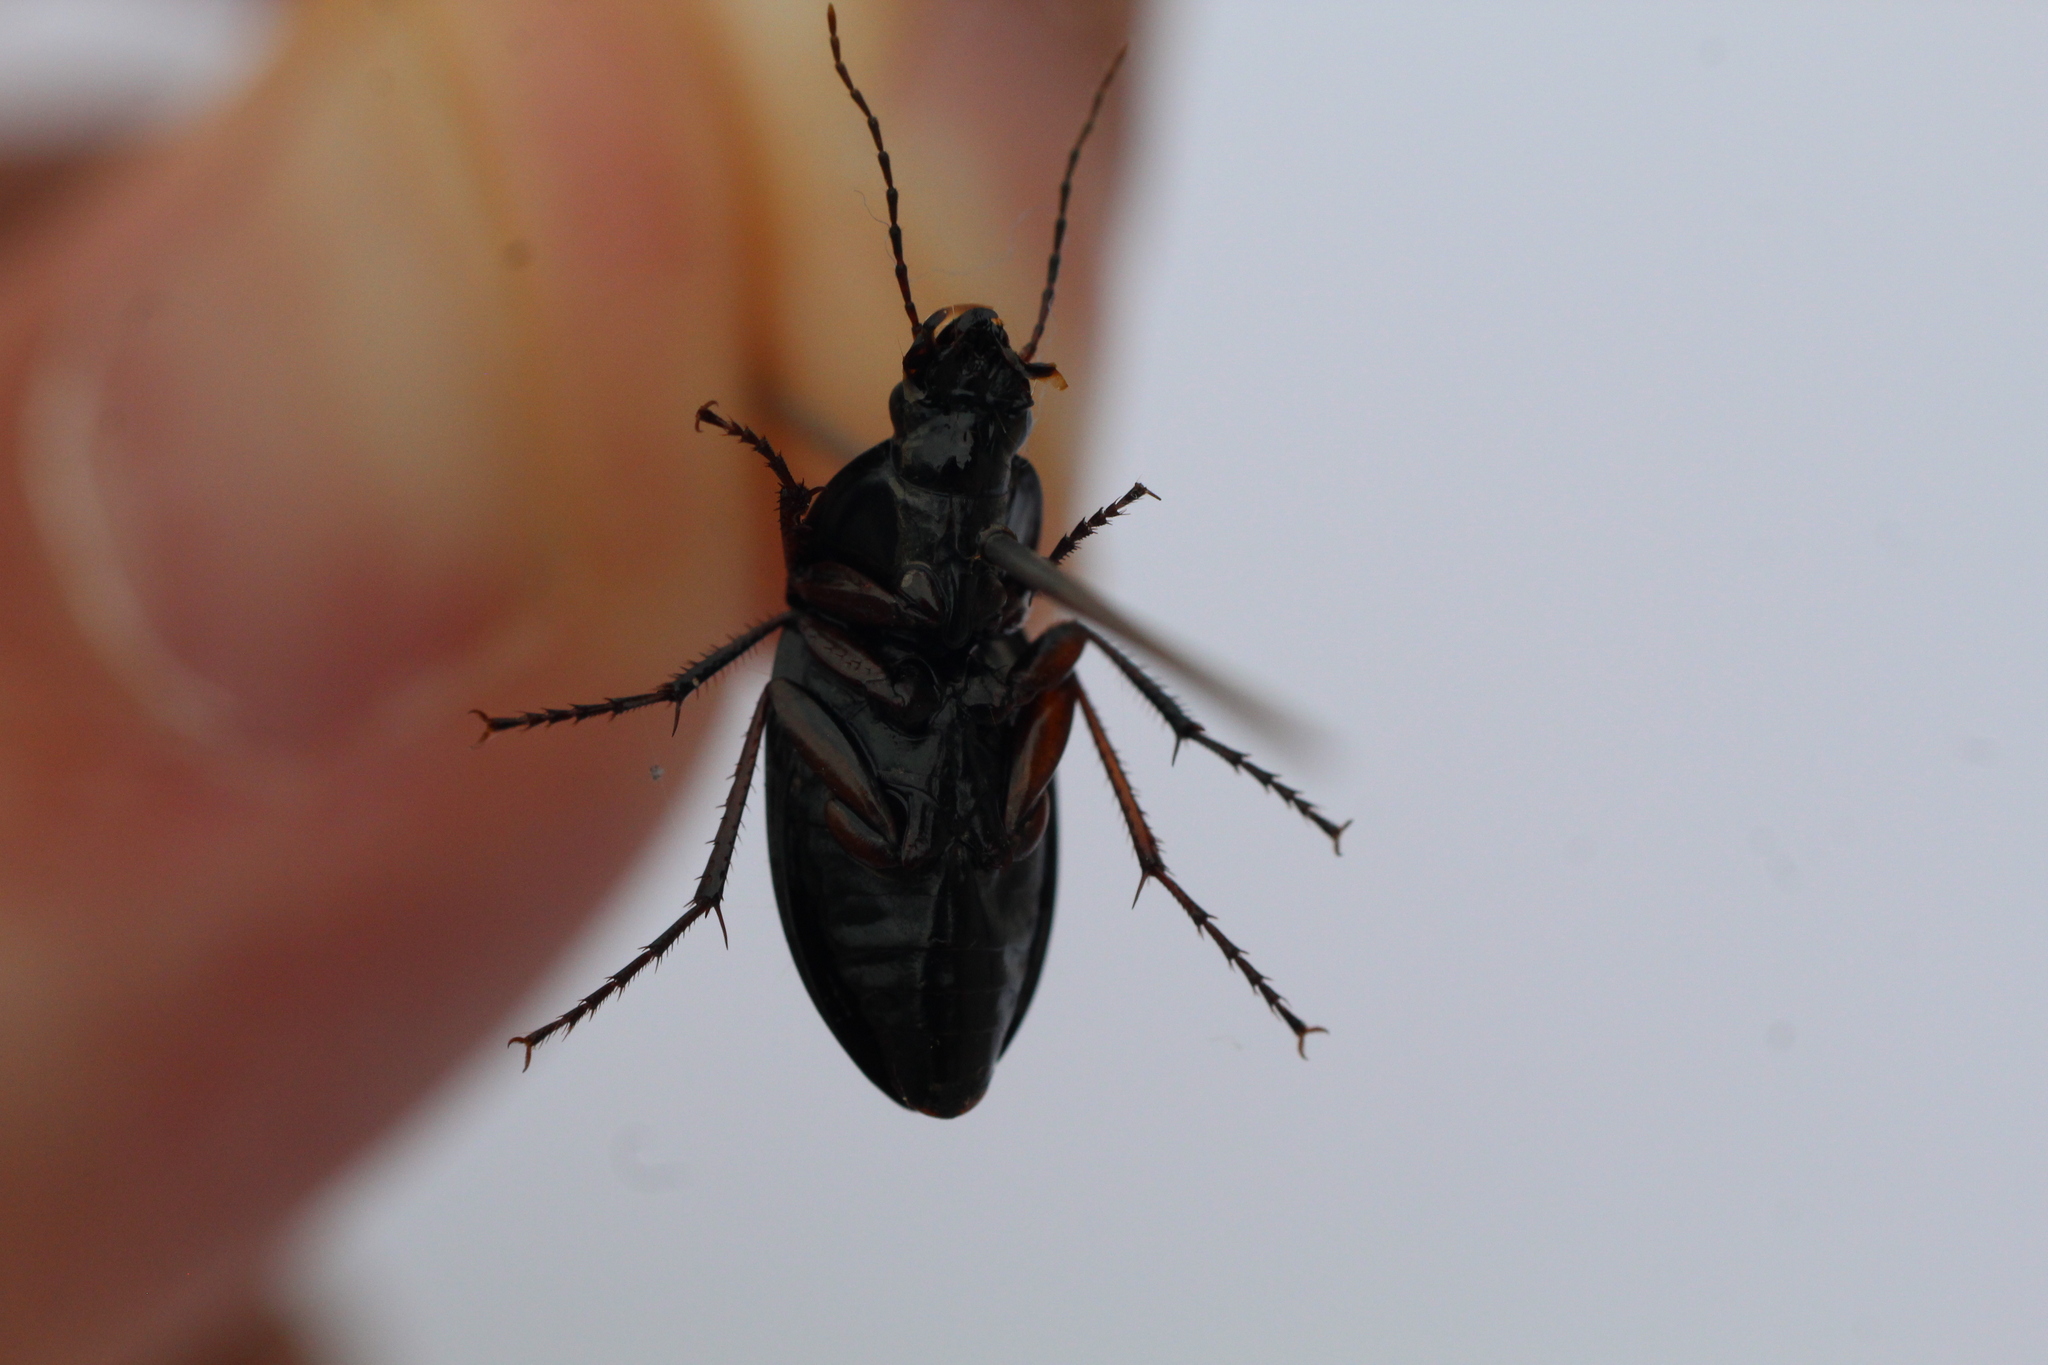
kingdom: Animalia
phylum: Arthropoda
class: Insecta
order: Coleoptera
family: Carabidae
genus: Calathus
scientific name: Calathus fuscipes
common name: Dark-footed harp ground beetle
